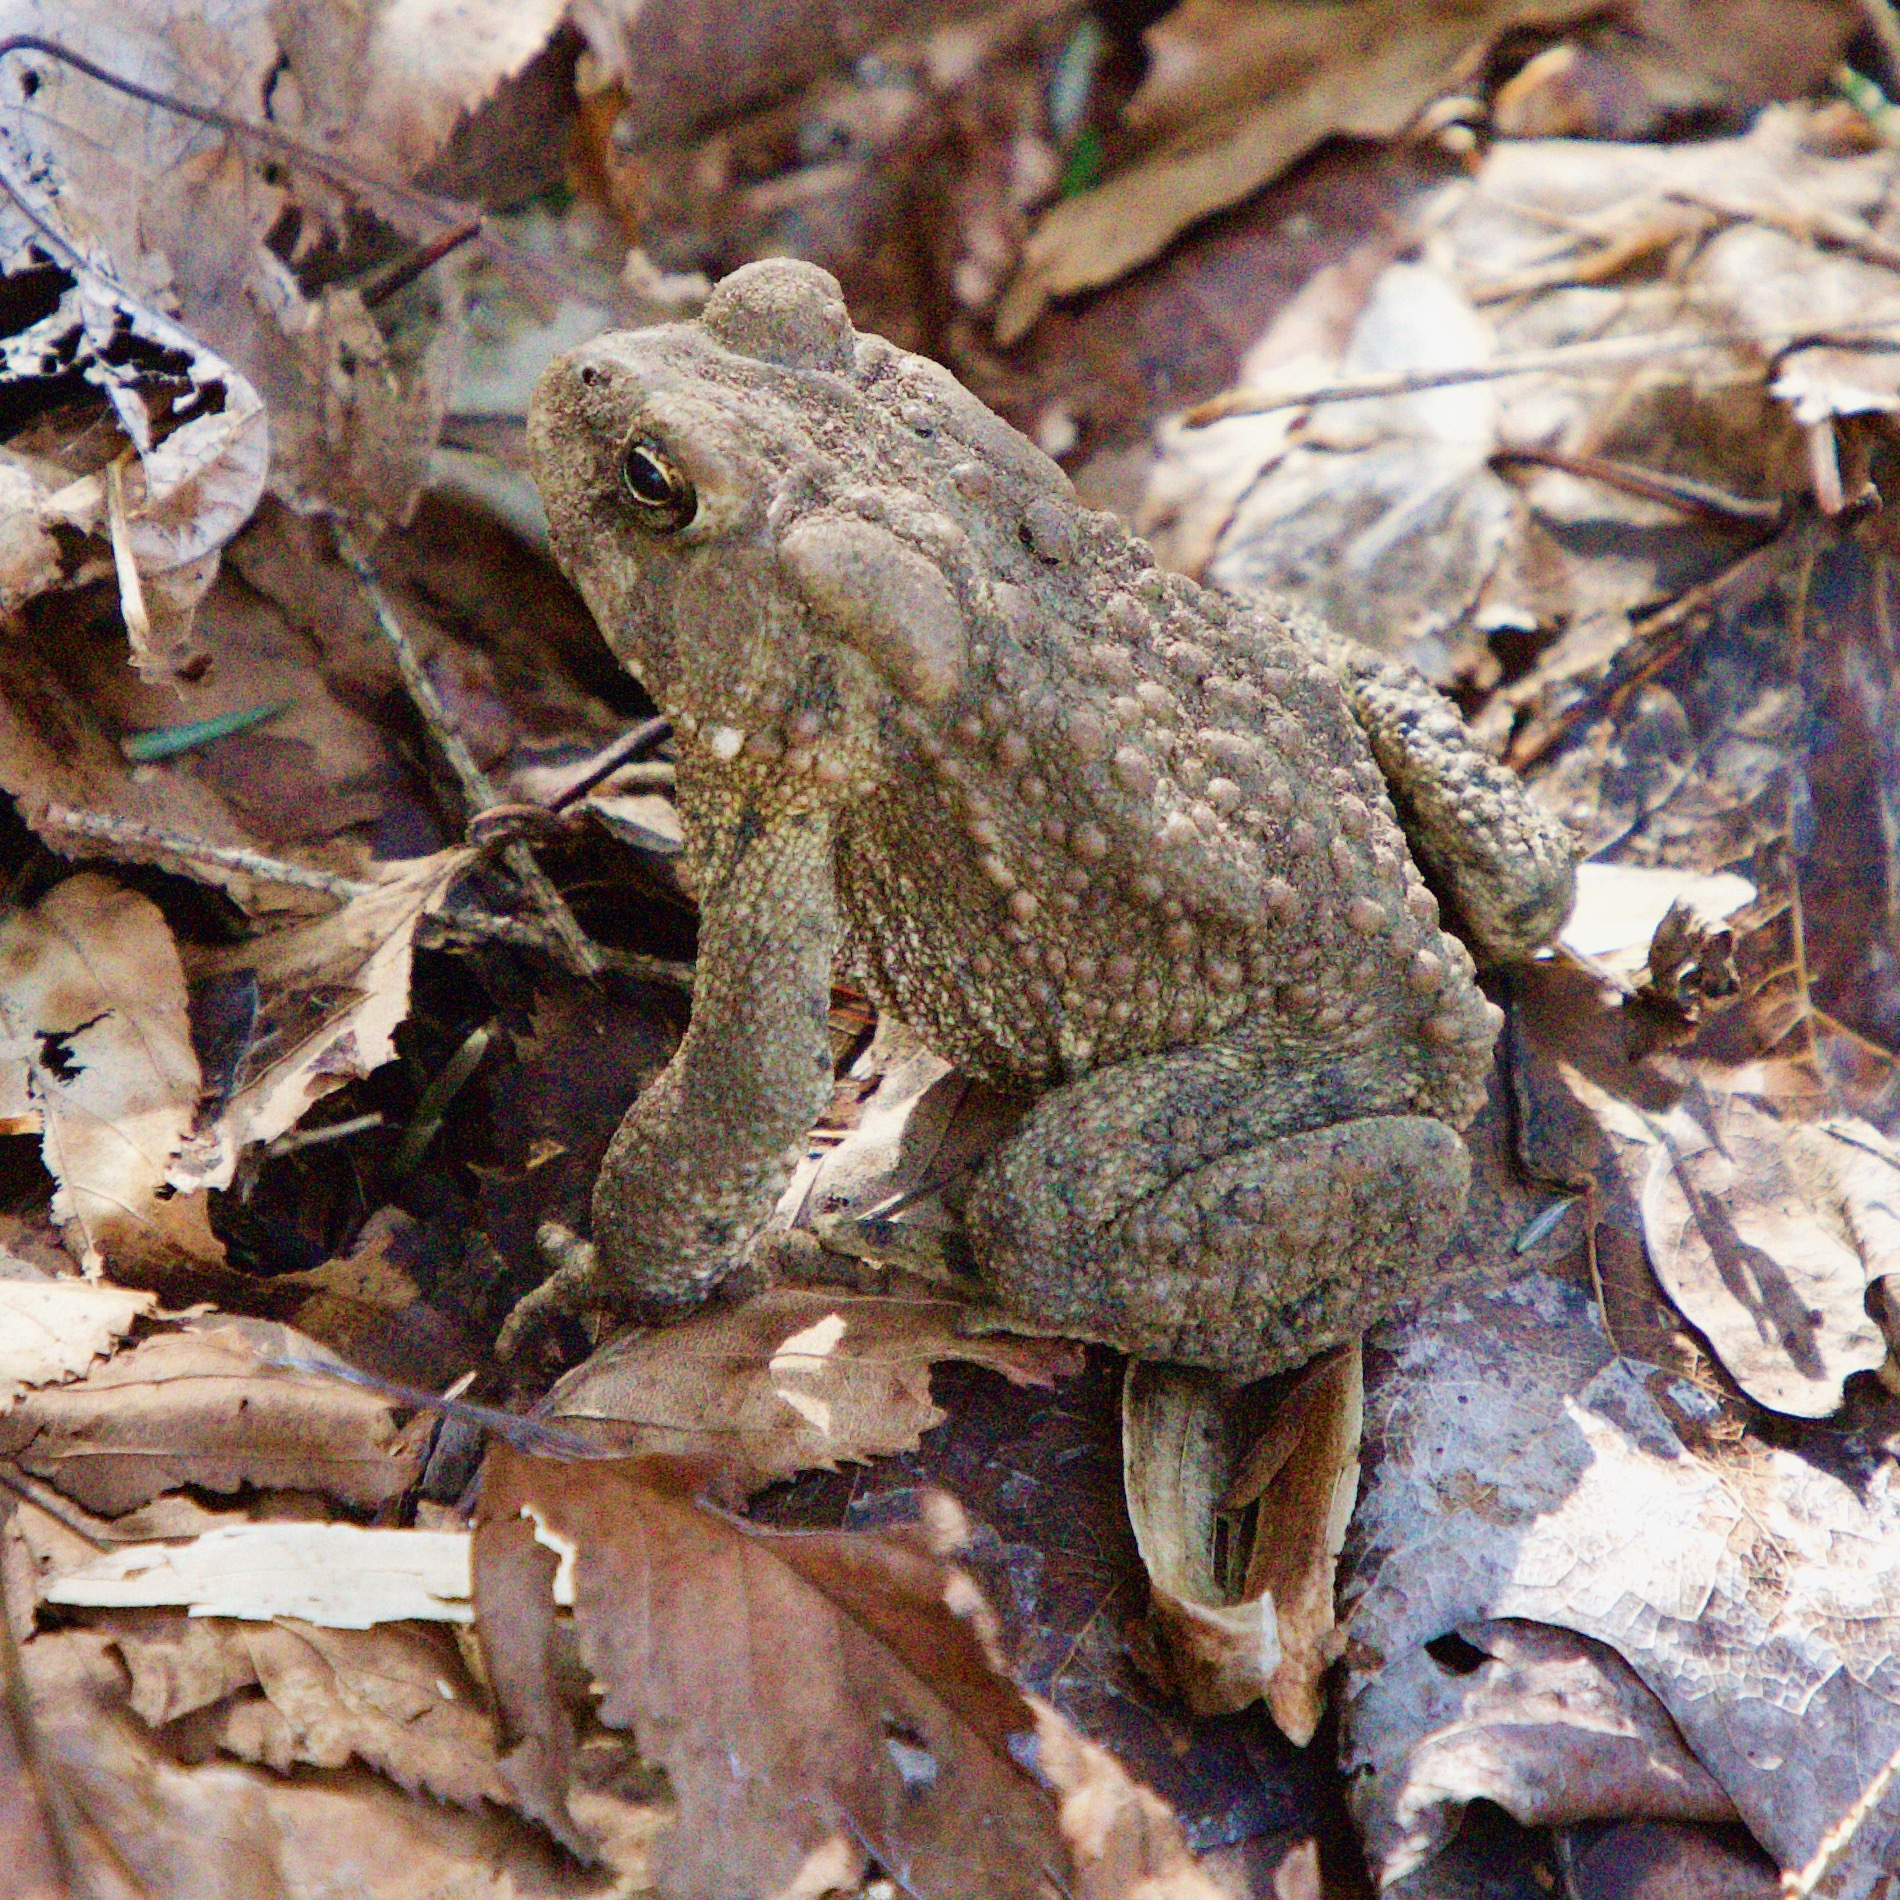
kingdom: Animalia
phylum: Chordata
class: Amphibia
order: Anura
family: Bufonidae
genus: Anaxyrus
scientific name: Anaxyrus americanus
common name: American toad
